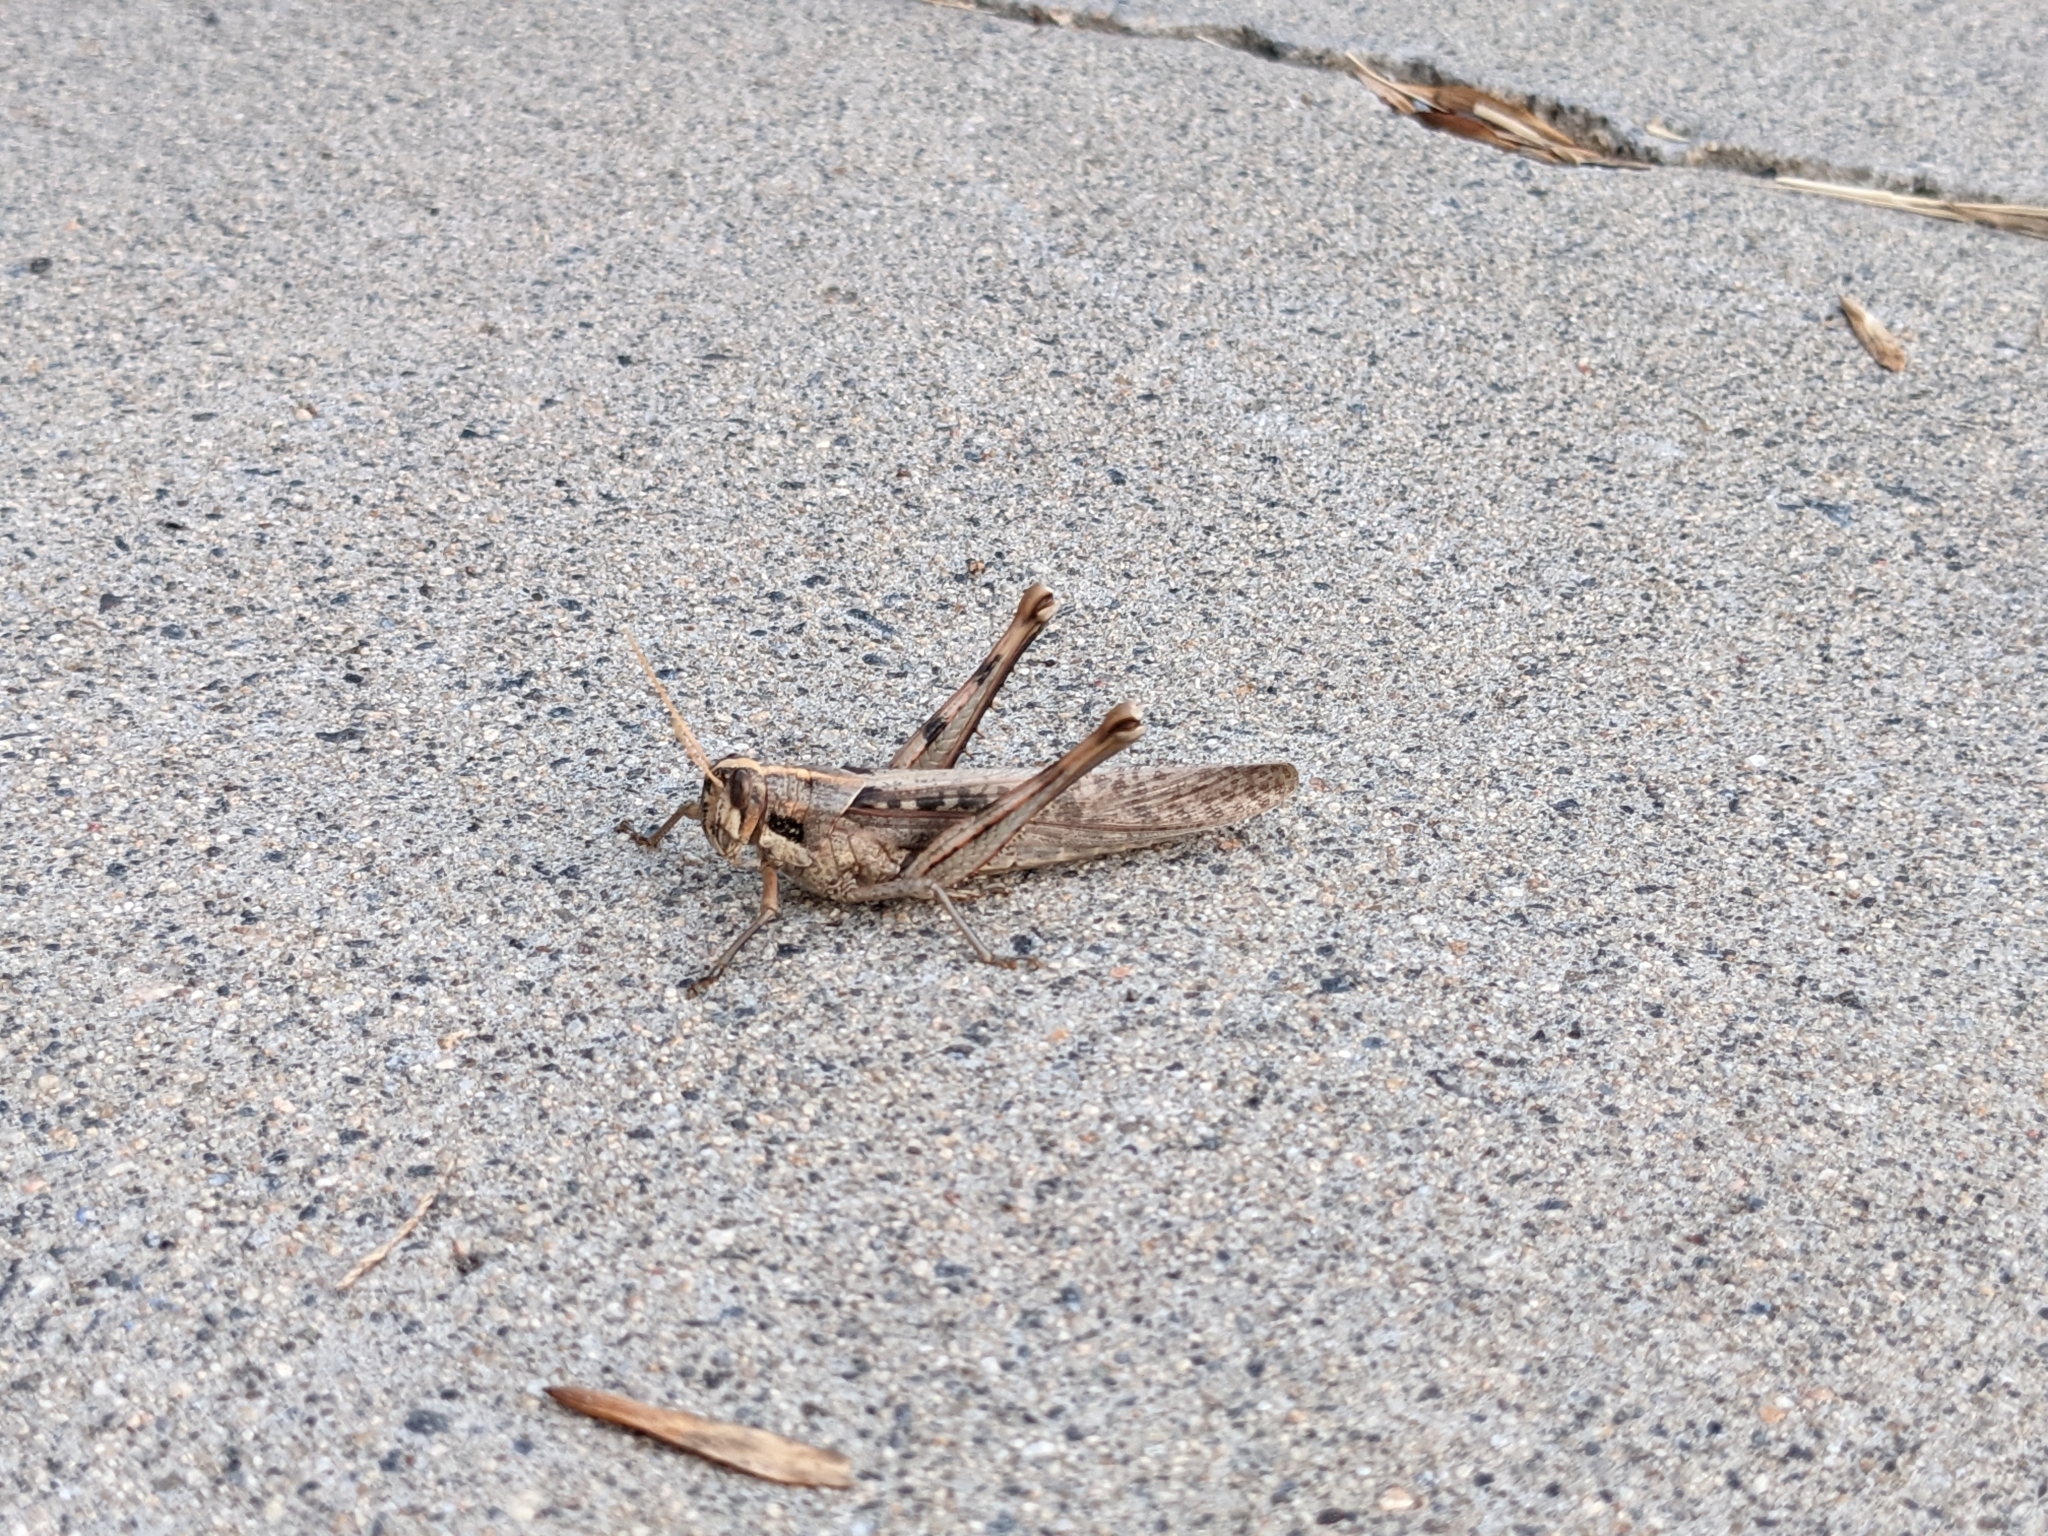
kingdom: Animalia
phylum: Arthropoda
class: Insecta
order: Orthoptera
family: Acrididae
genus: Schistocerca
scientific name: Schistocerca nitens
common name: Vagrant grasshopper
